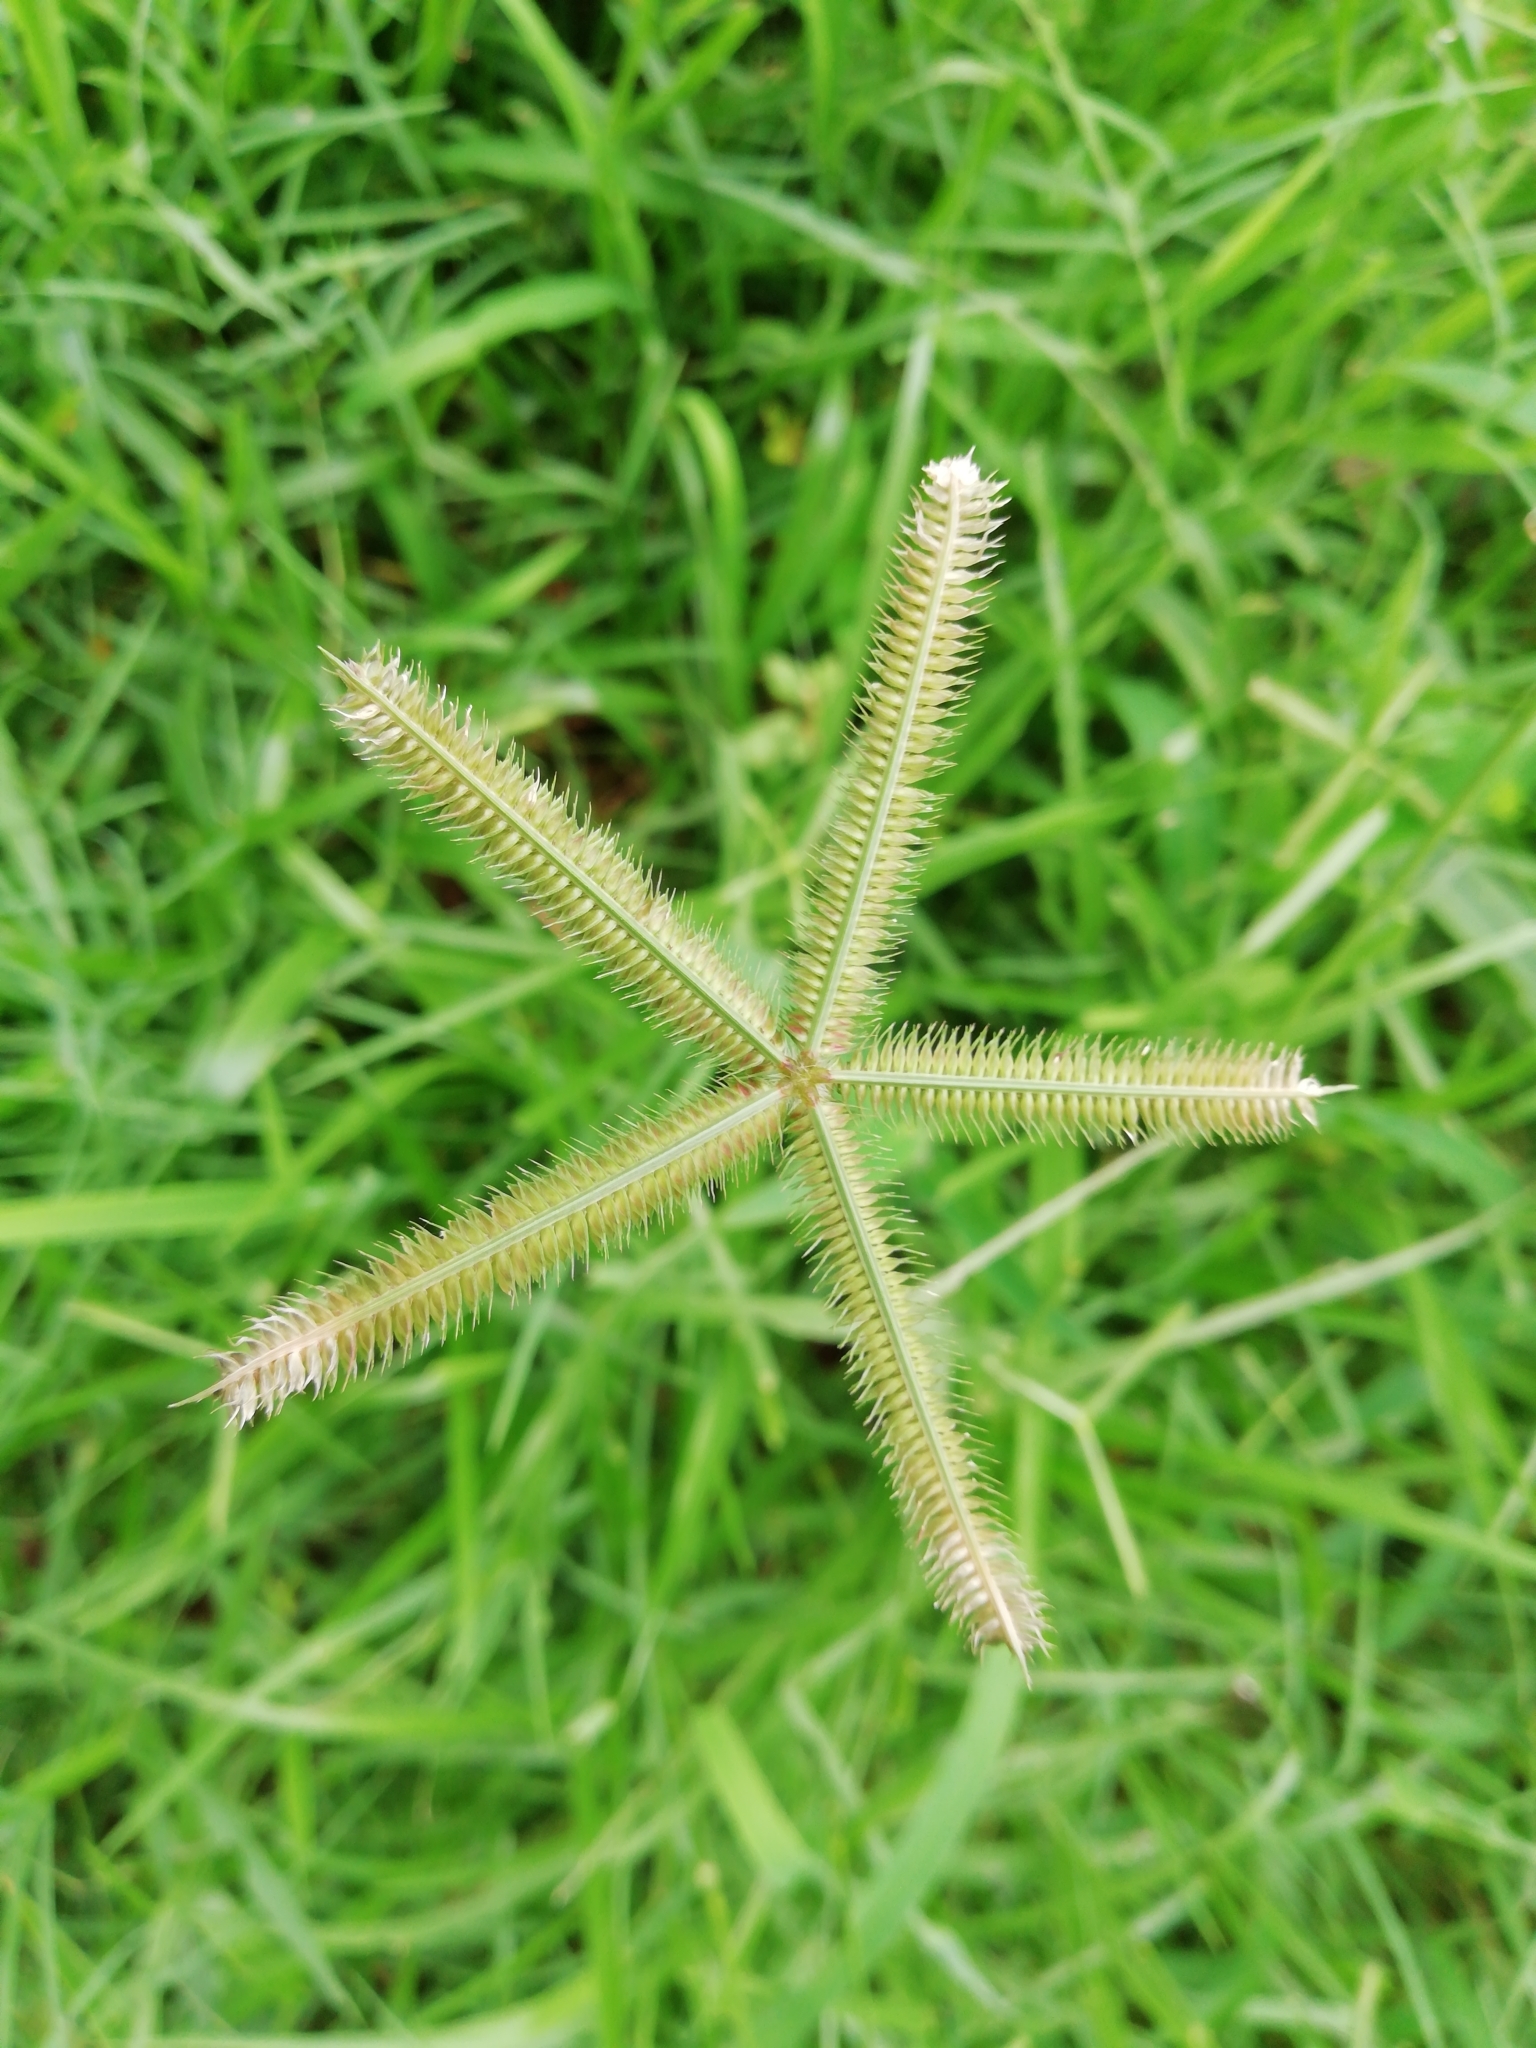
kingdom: Plantae
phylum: Tracheophyta
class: Liliopsida
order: Poales
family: Poaceae
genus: Dactyloctenium
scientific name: Dactyloctenium aegyptium
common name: Egyptian grass
